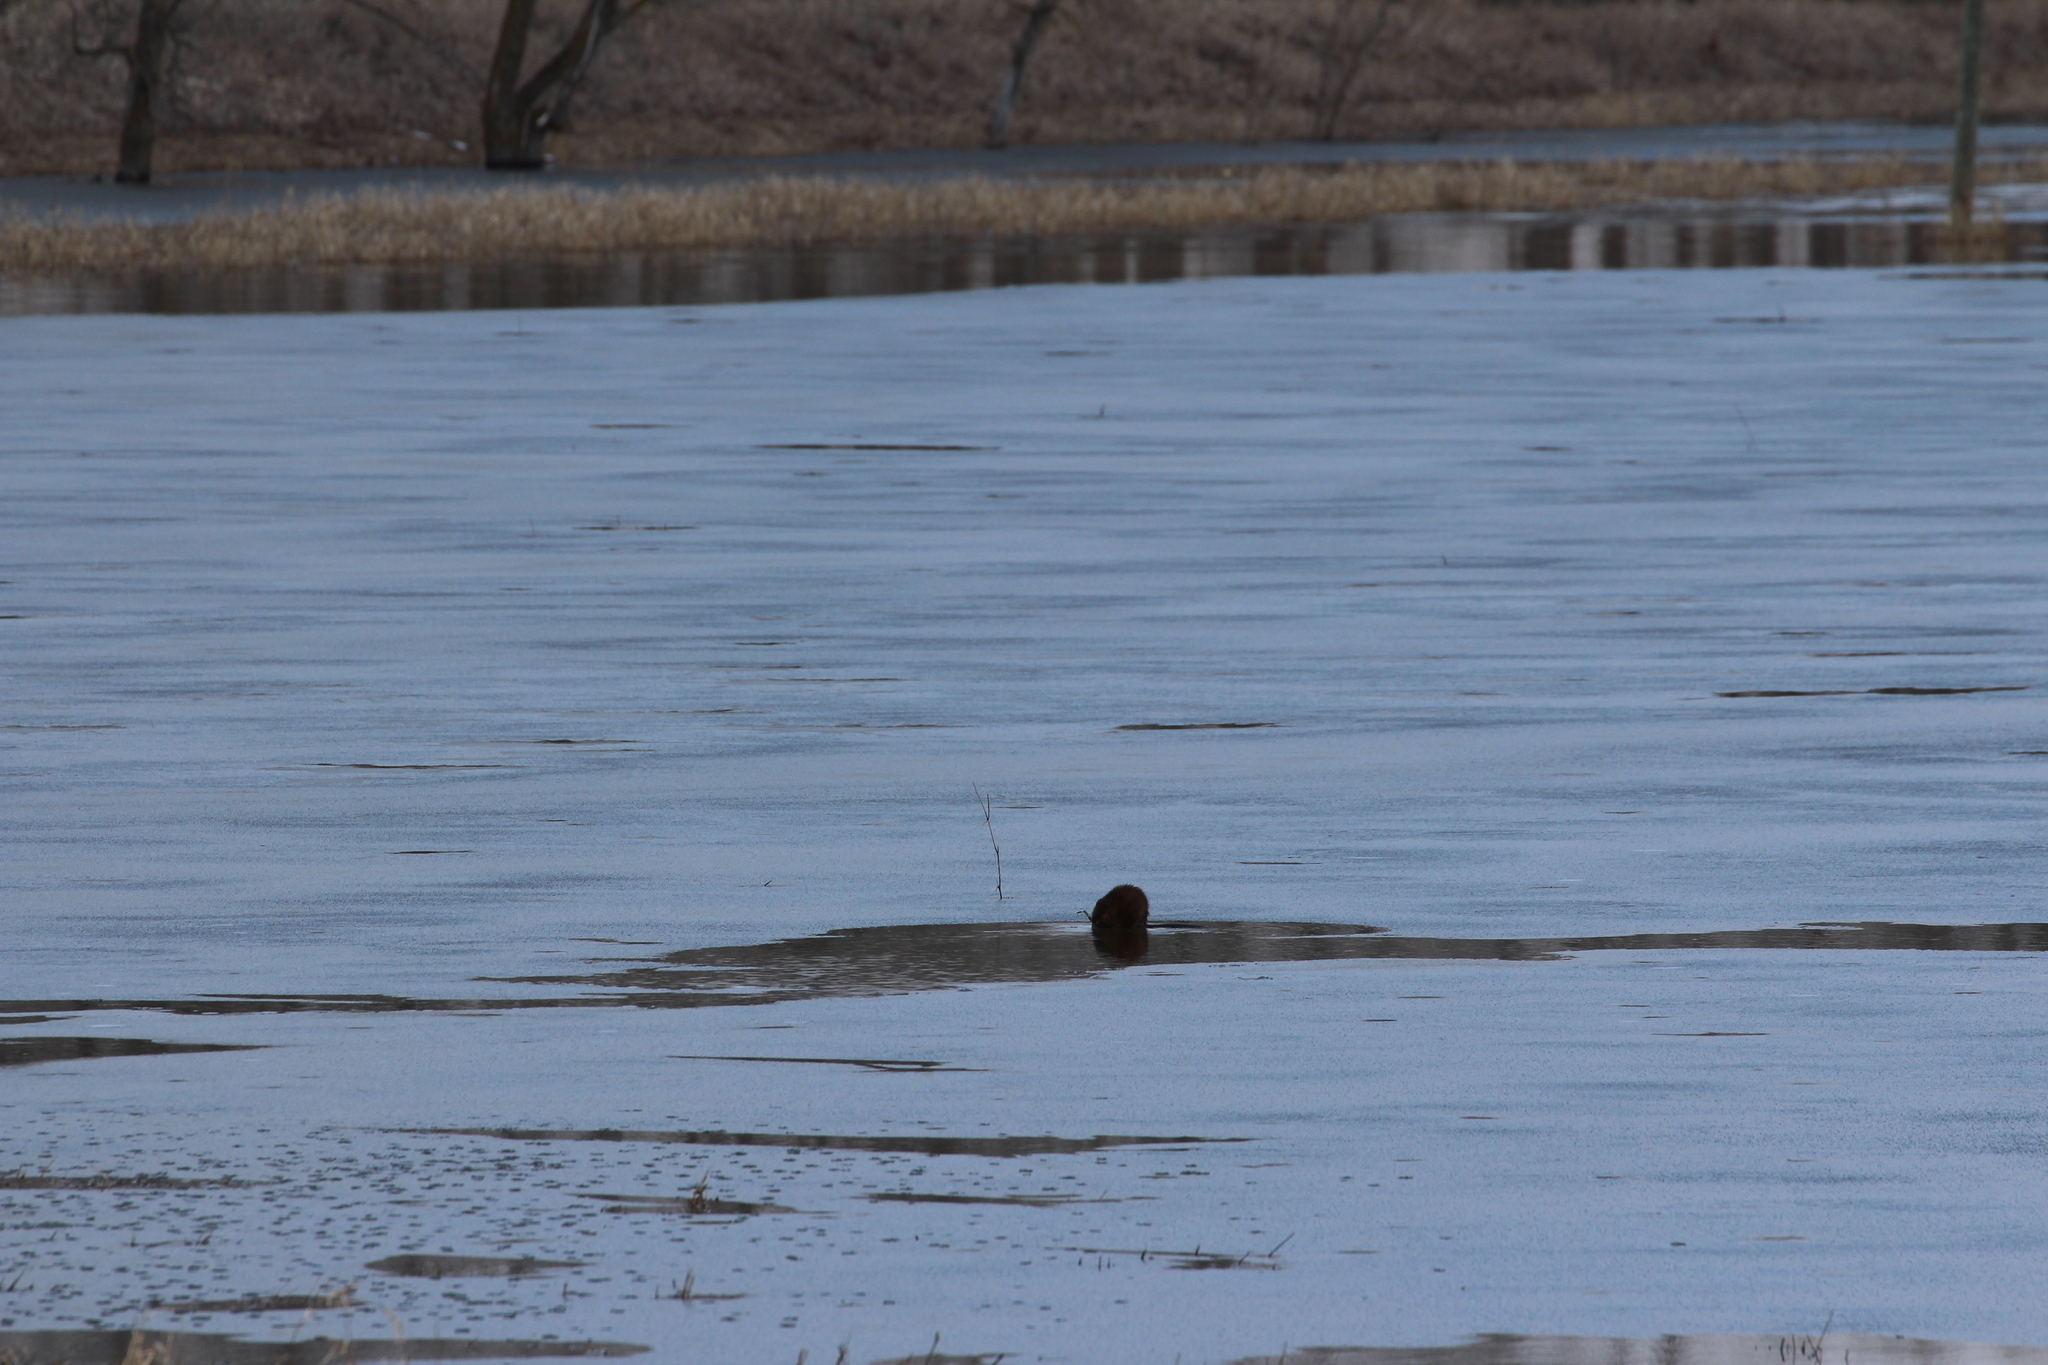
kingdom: Animalia
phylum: Chordata
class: Mammalia
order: Rodentia
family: Cricetidae
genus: Ondatra
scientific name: Ondatra zibethicus
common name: Muskrat
